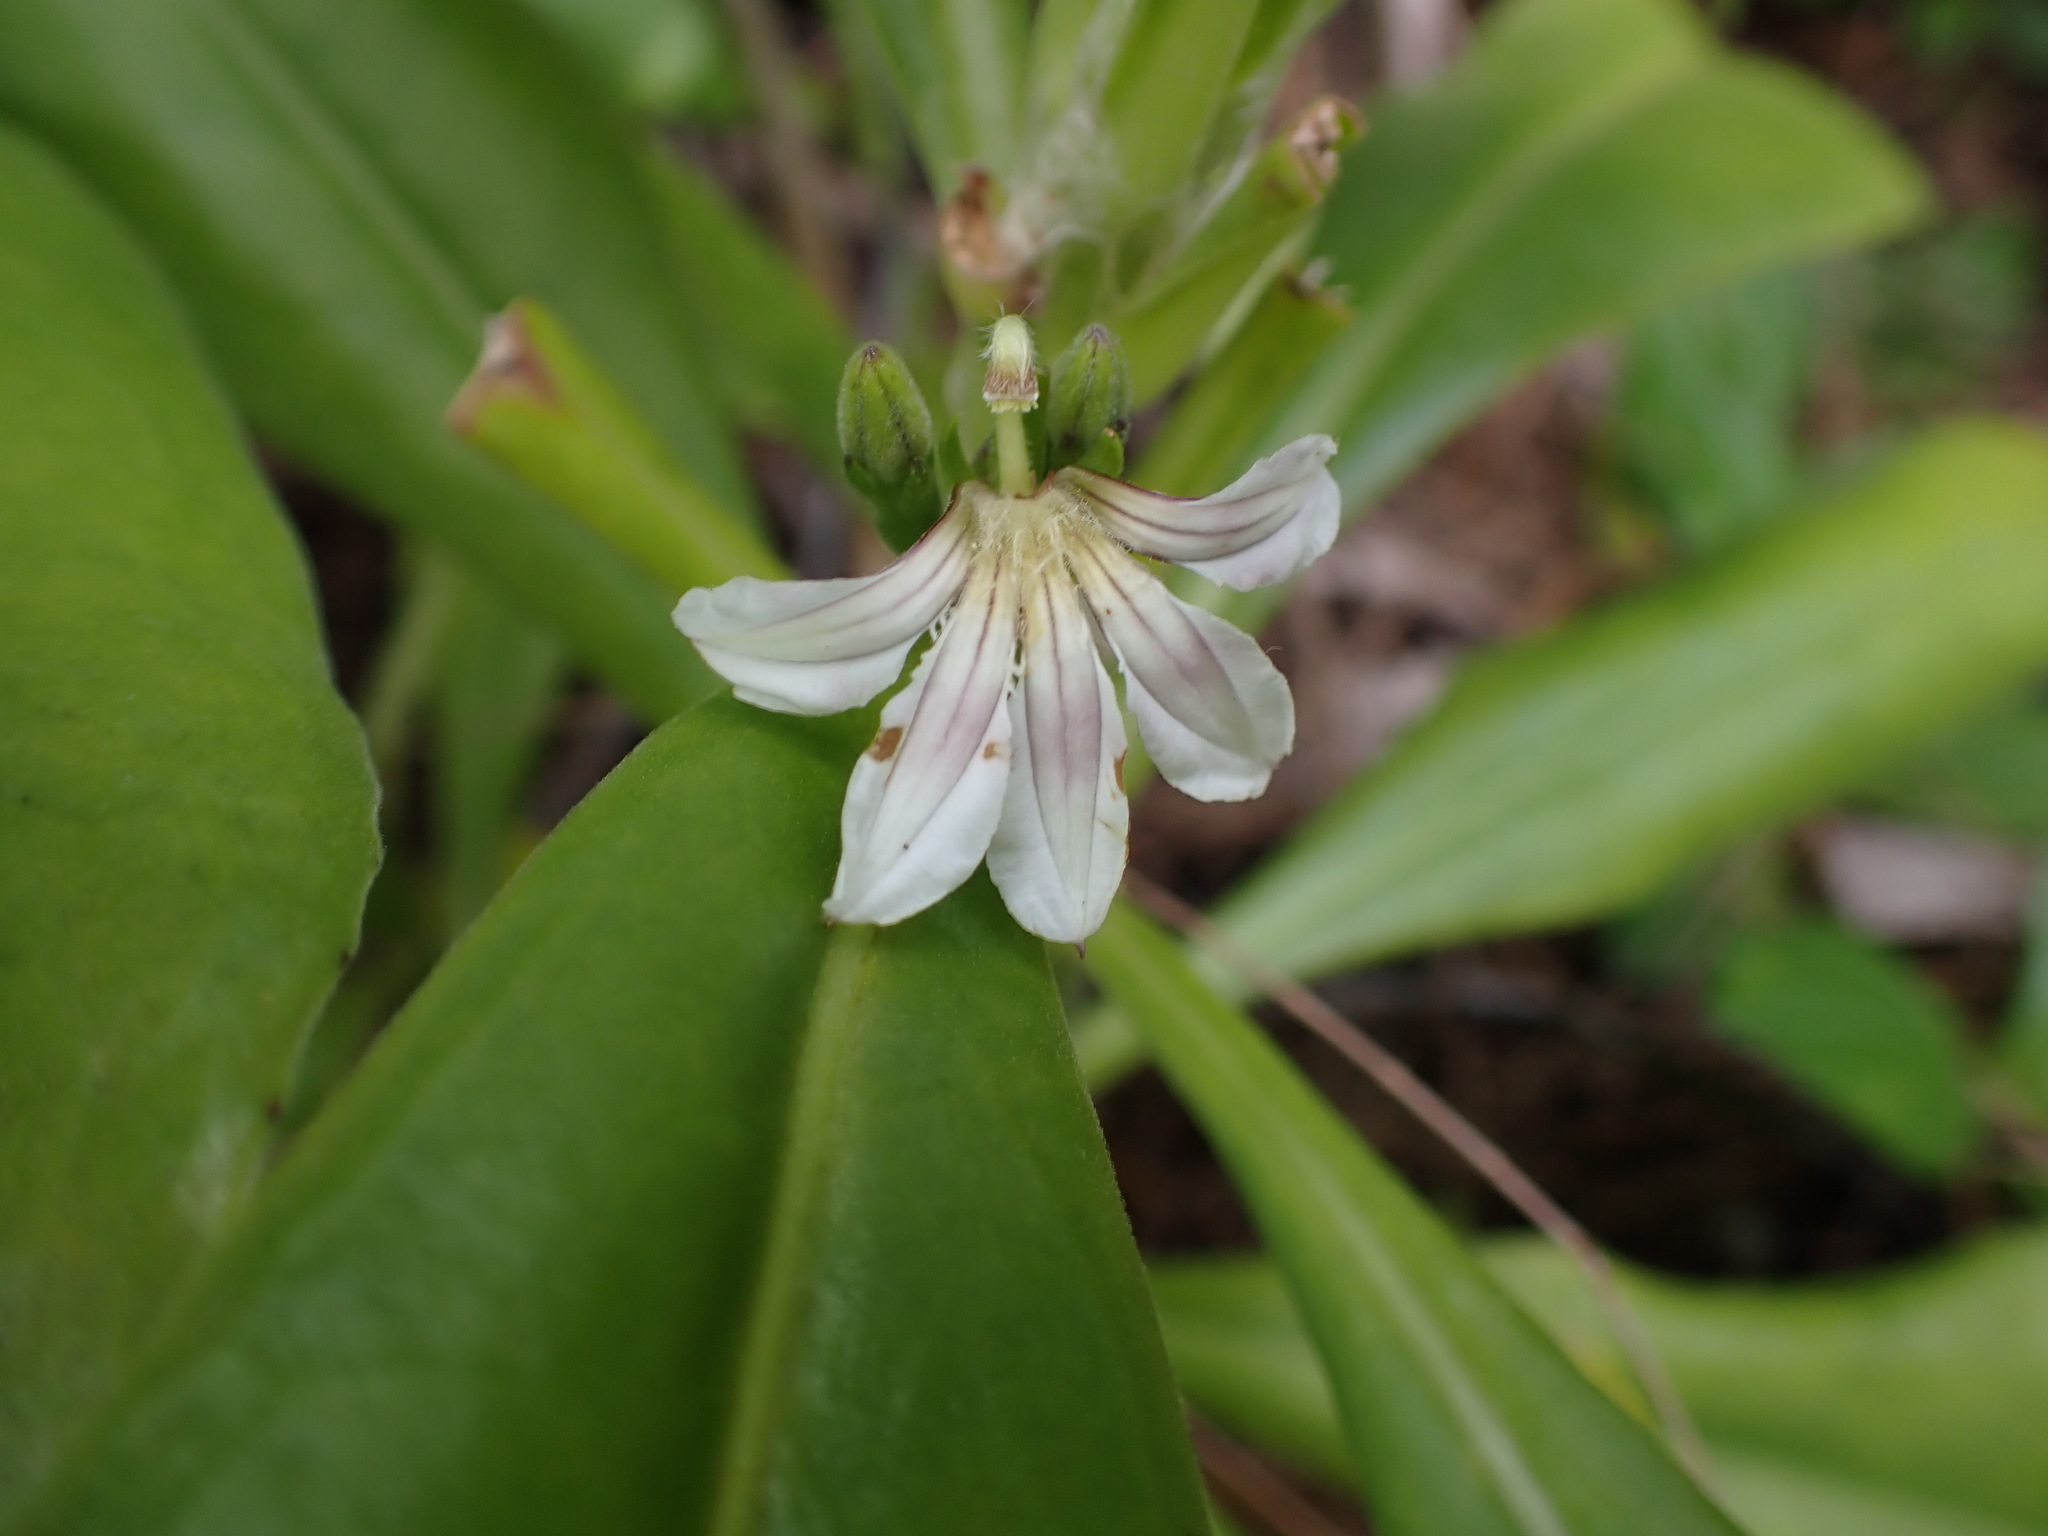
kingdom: Plantae
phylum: Tracheophyta
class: Magnoliopsida
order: Asterales
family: Goodeniaceae
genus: Scaevola
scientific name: Scaevola taccada
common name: Sea lettucetree
